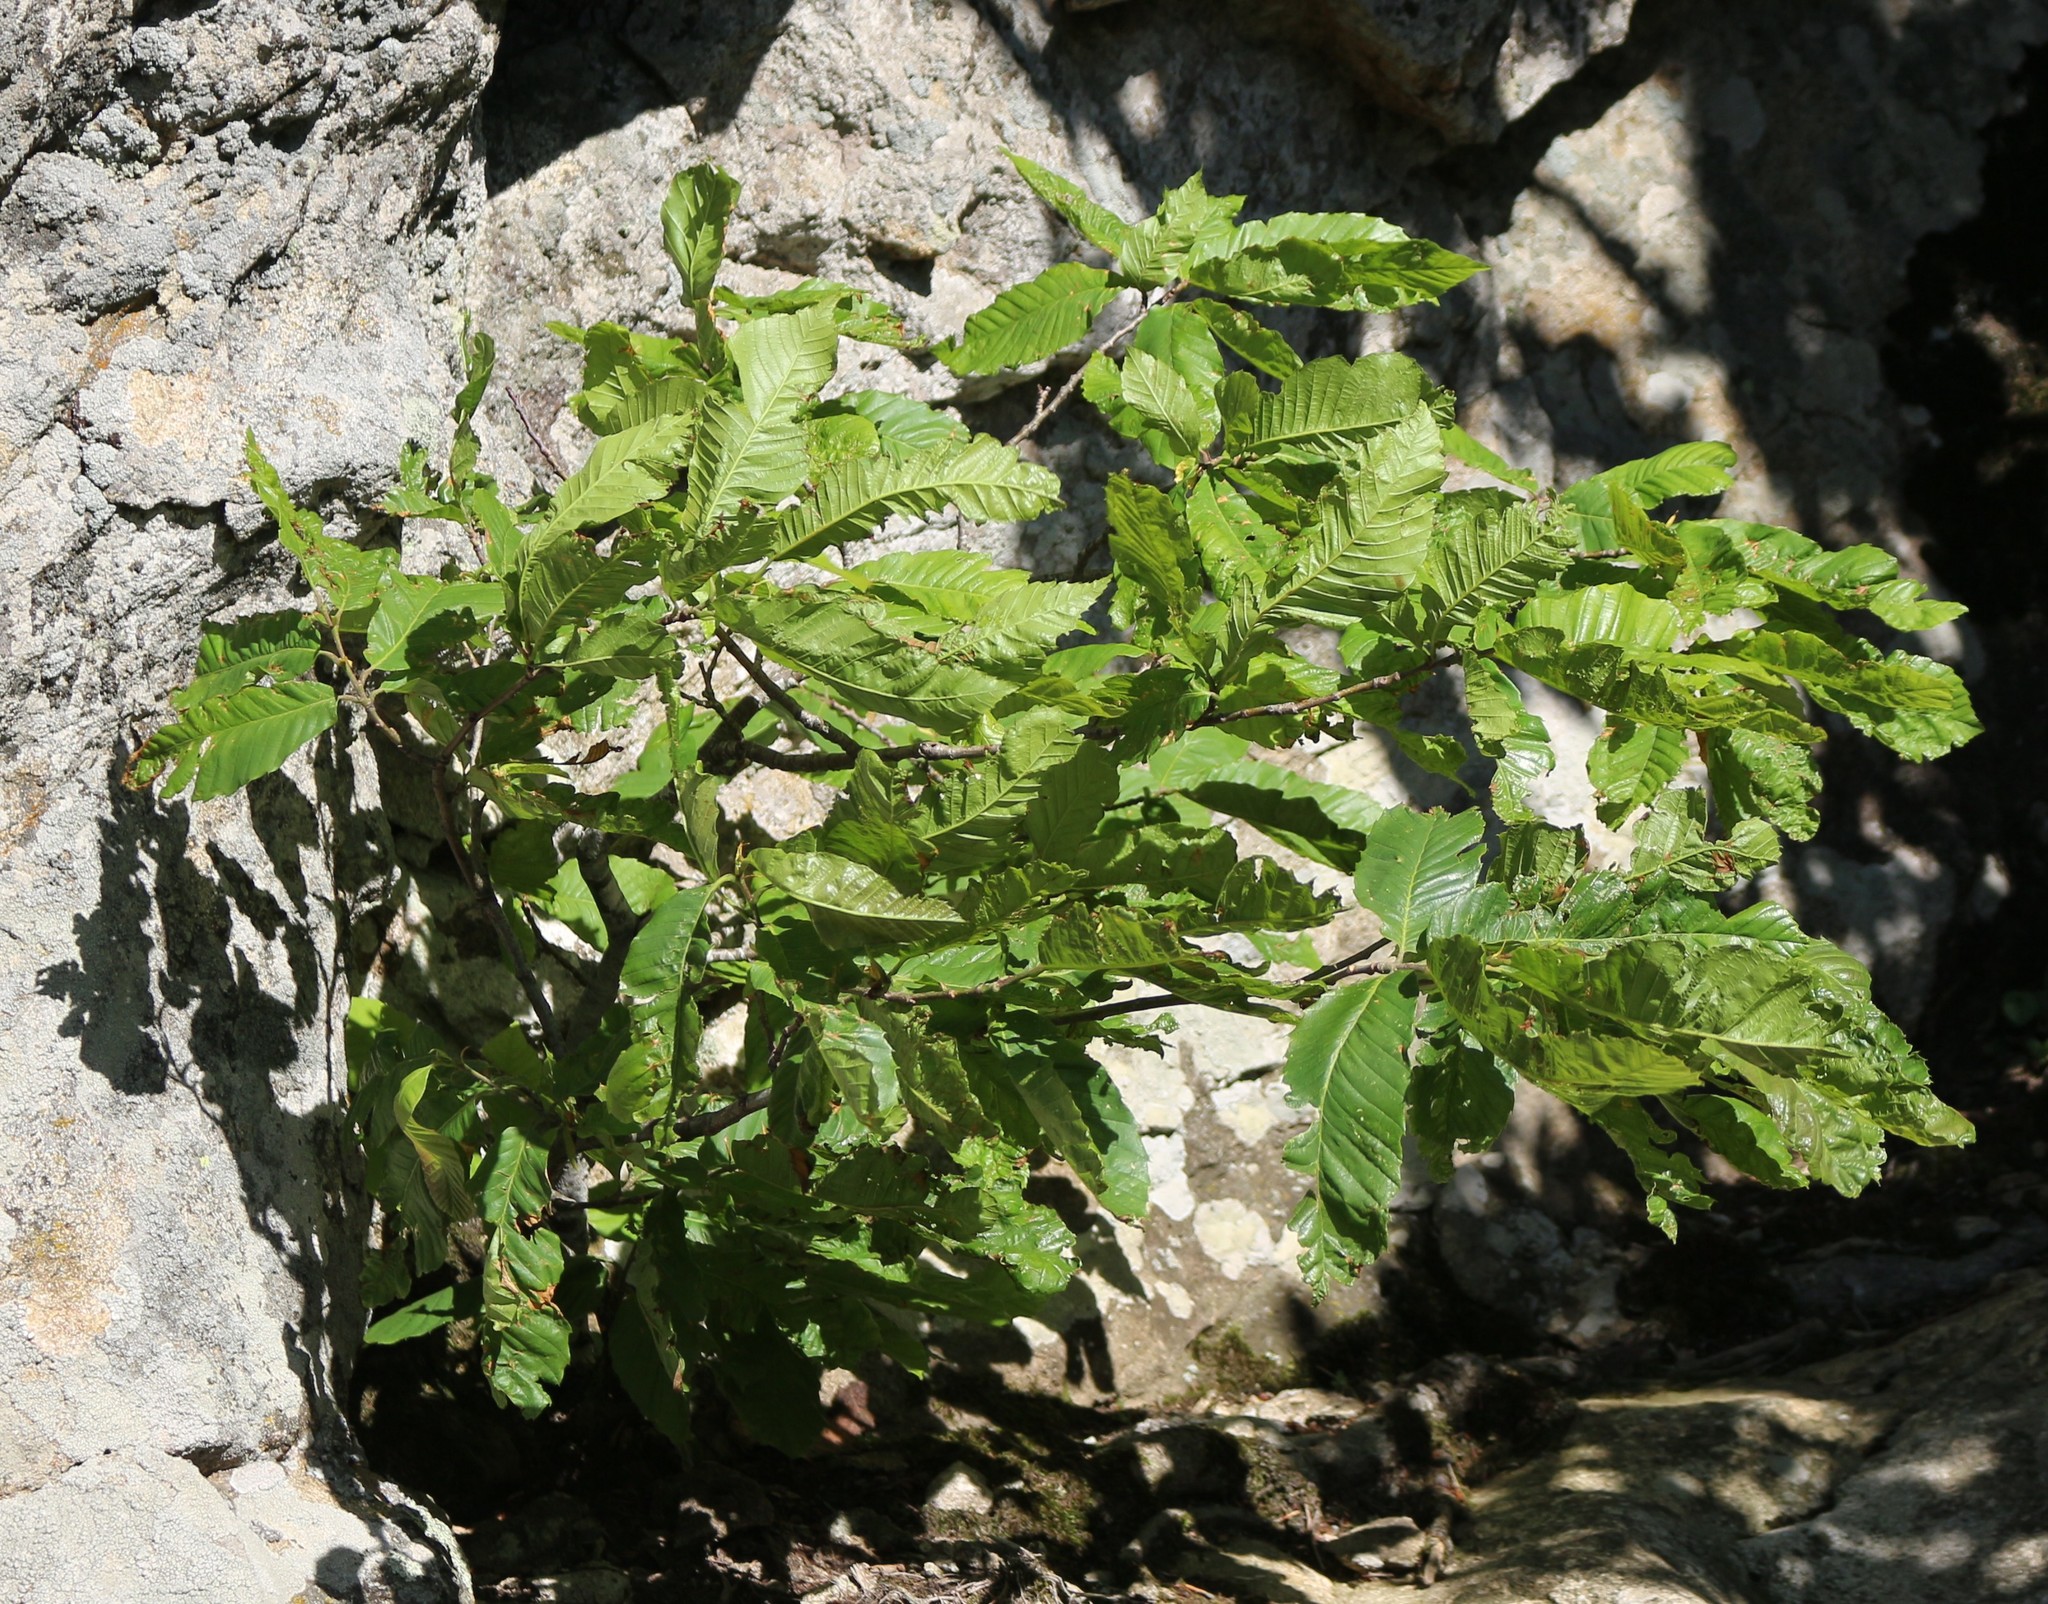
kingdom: Plantae
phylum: Tracheophyta
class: Magnoliopsida
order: Fagales
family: Fagaceae
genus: Castanea
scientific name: Castanea sativa
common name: Sweet chestnut
